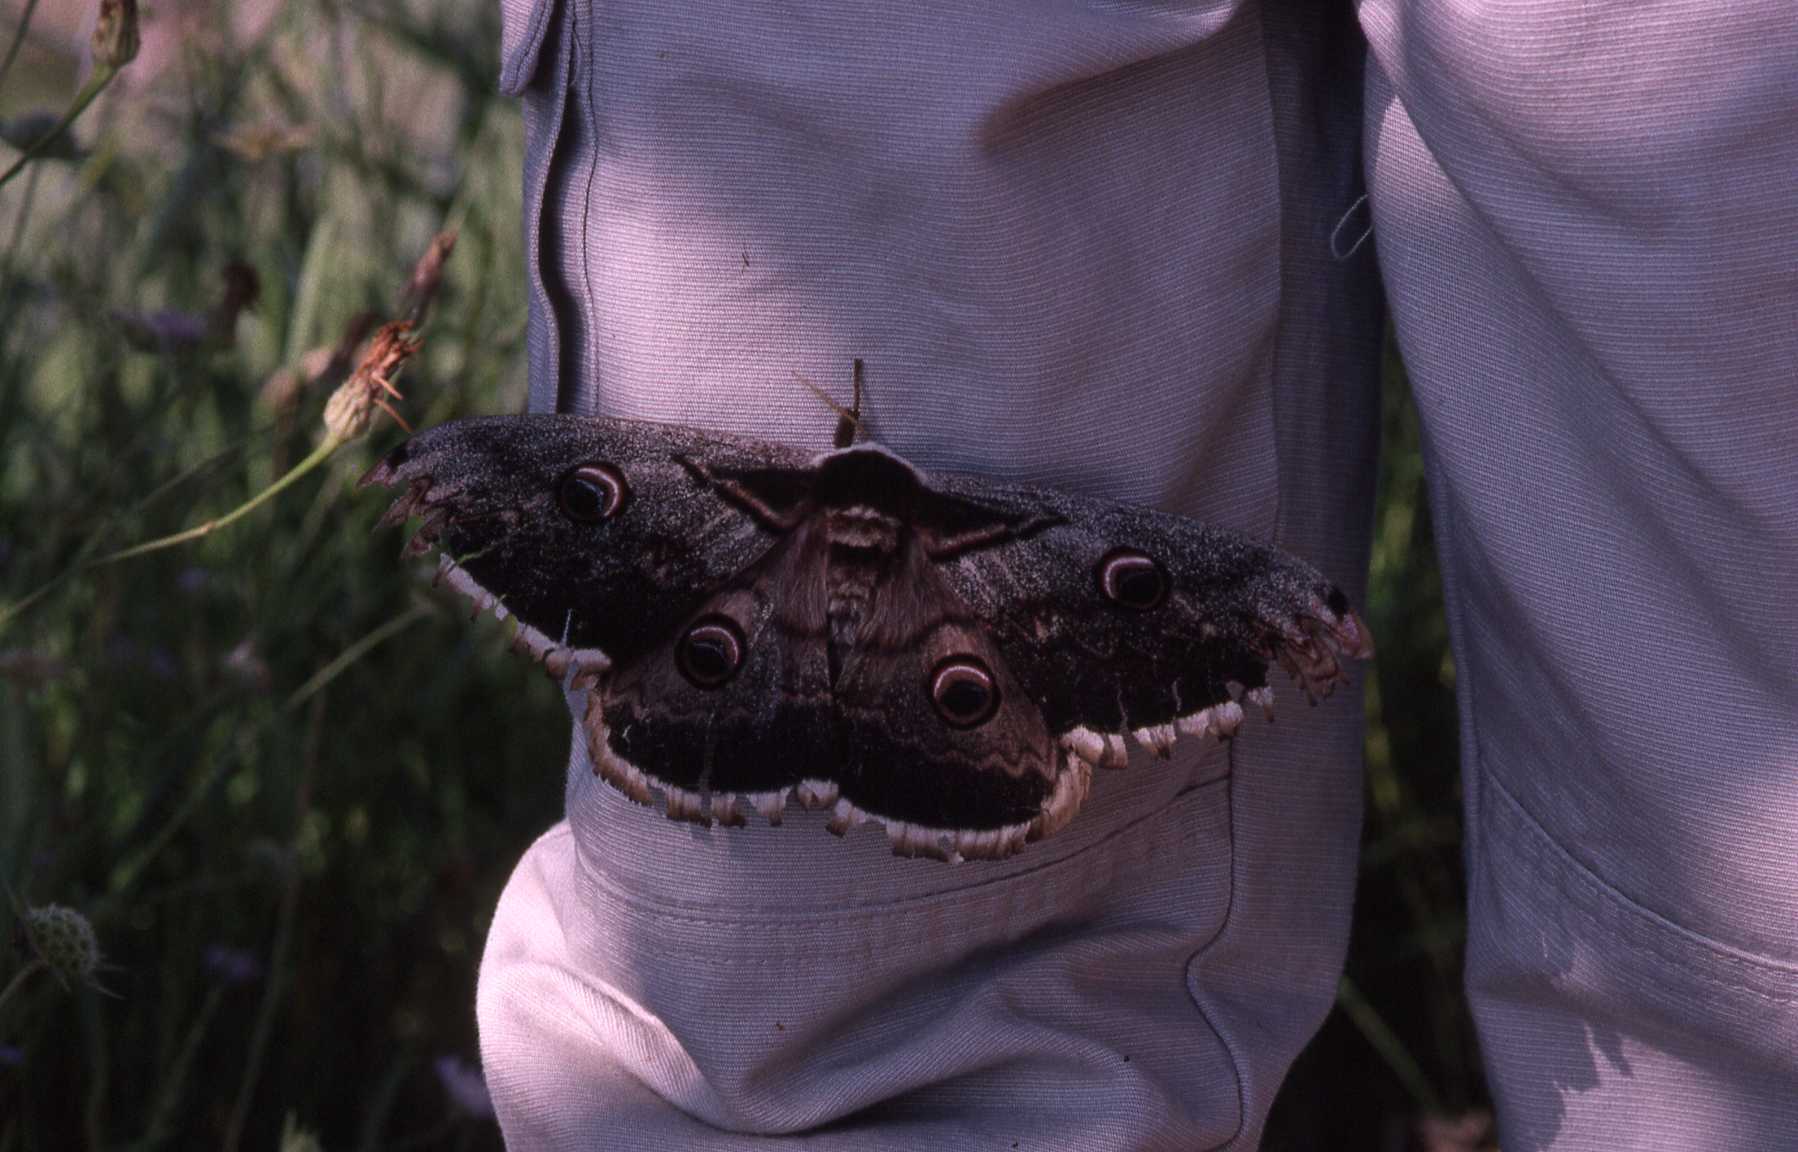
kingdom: Animalia
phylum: Arthropoda
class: Insecta
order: Lepidoptera
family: Saturniidae
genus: Saturnia
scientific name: Saturnia pyri
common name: Great peacock moth
